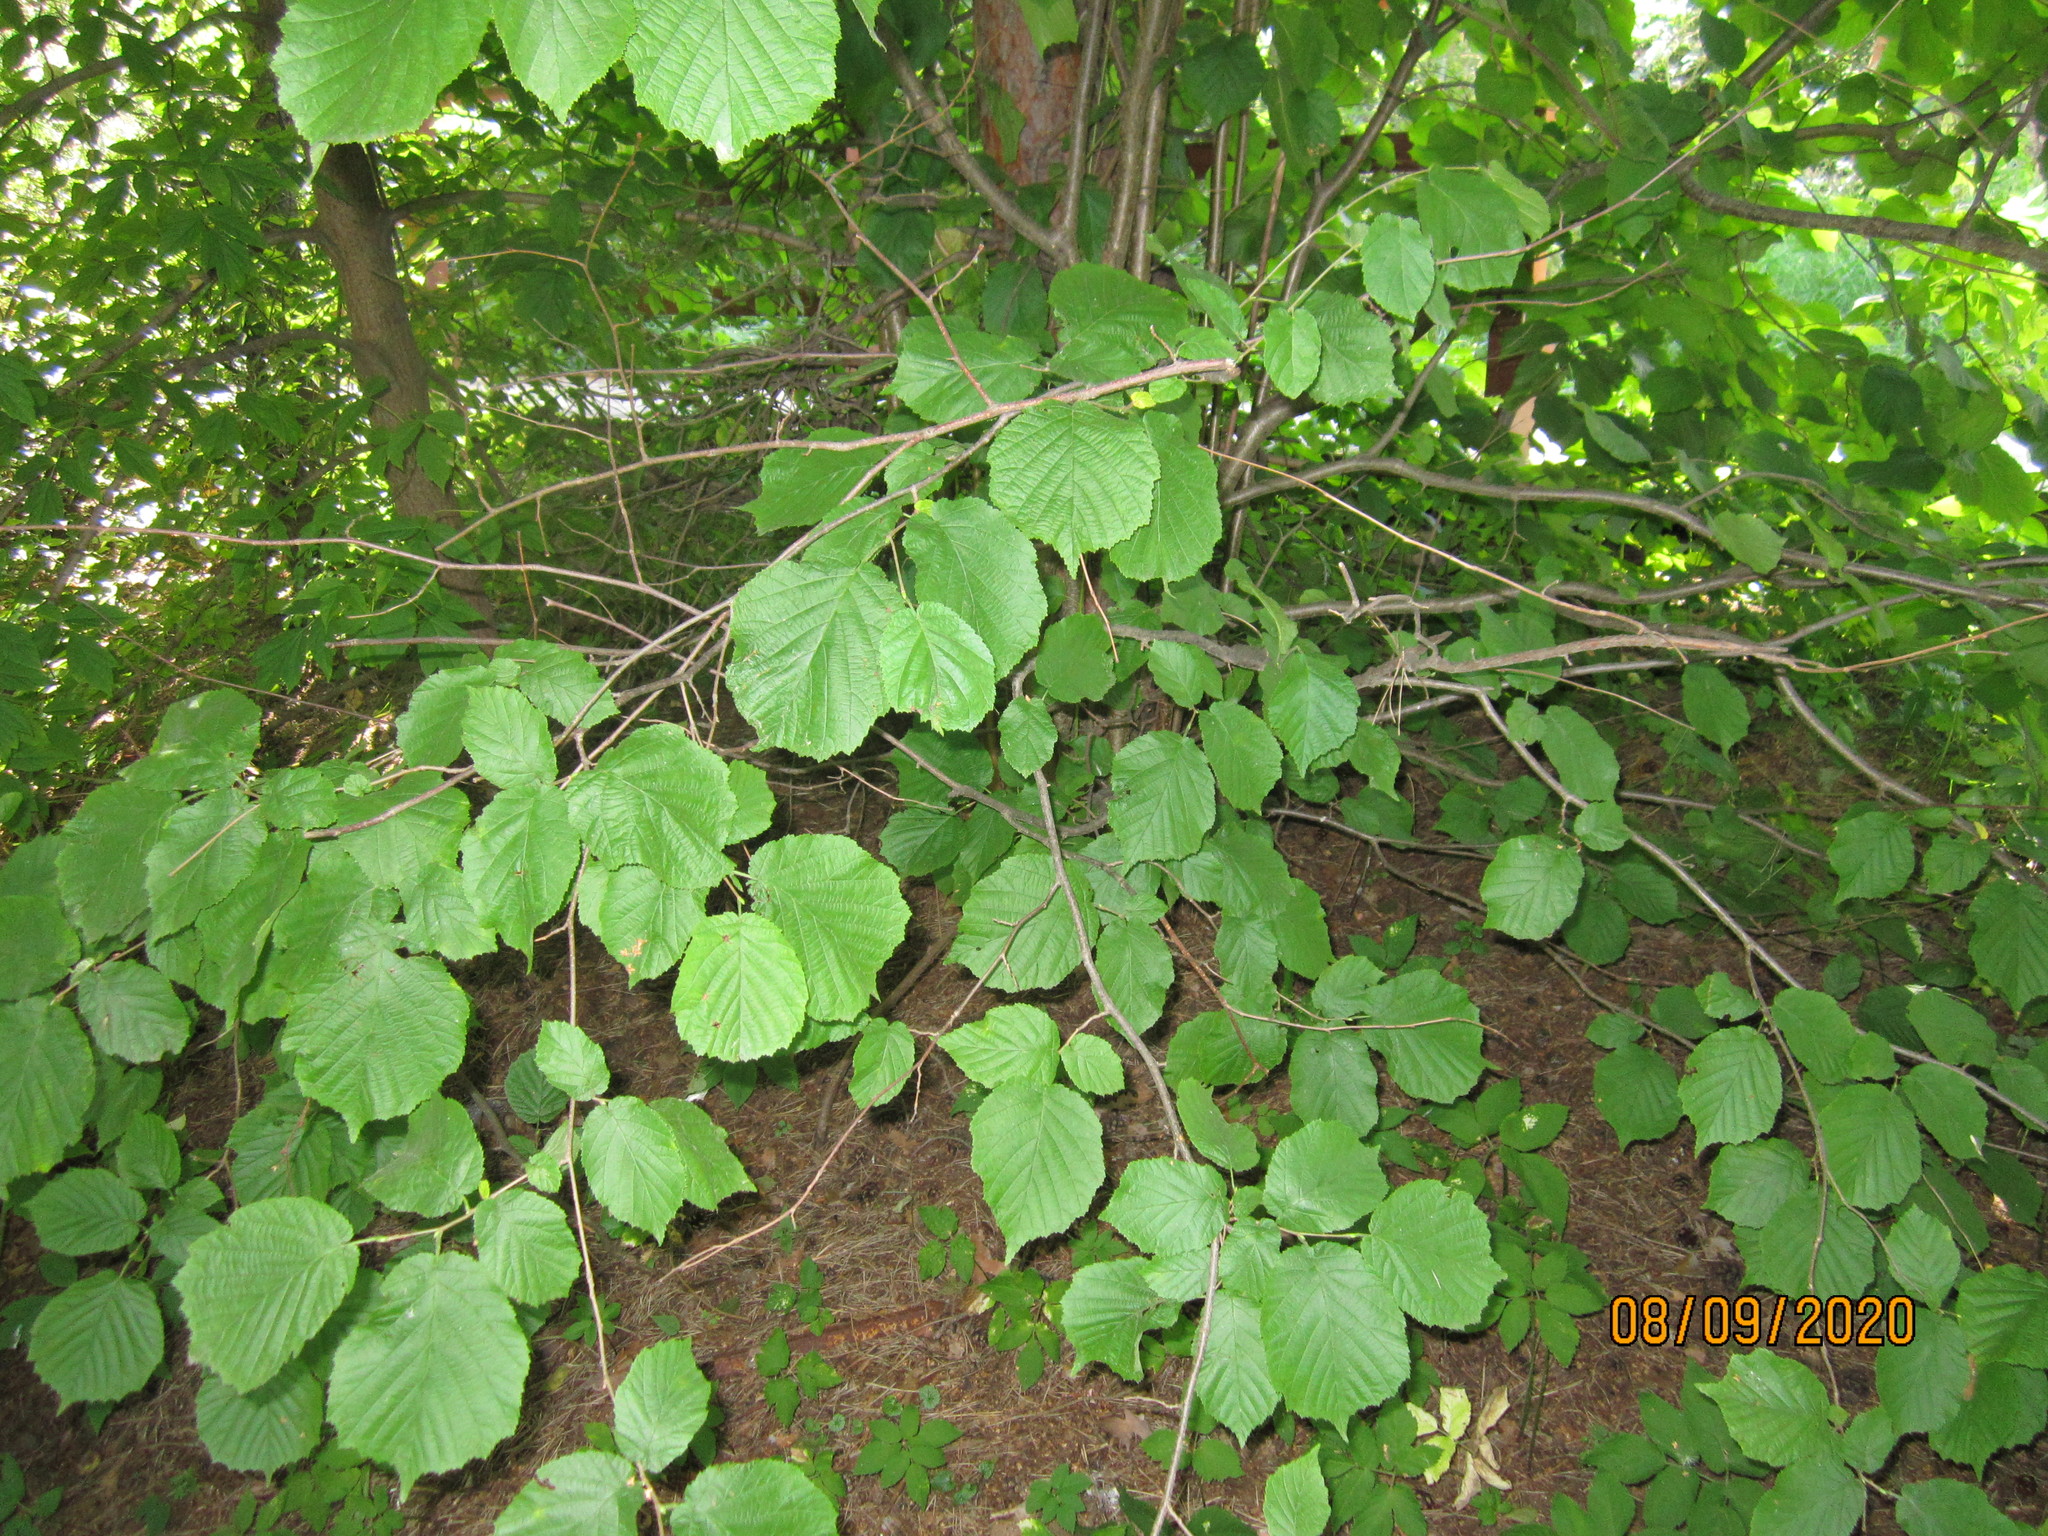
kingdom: Plantae
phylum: Tracheophyta
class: Magnoliopsida
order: Fagales
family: Betulaceae
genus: Corylus
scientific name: Corylus avellana
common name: European hazel
